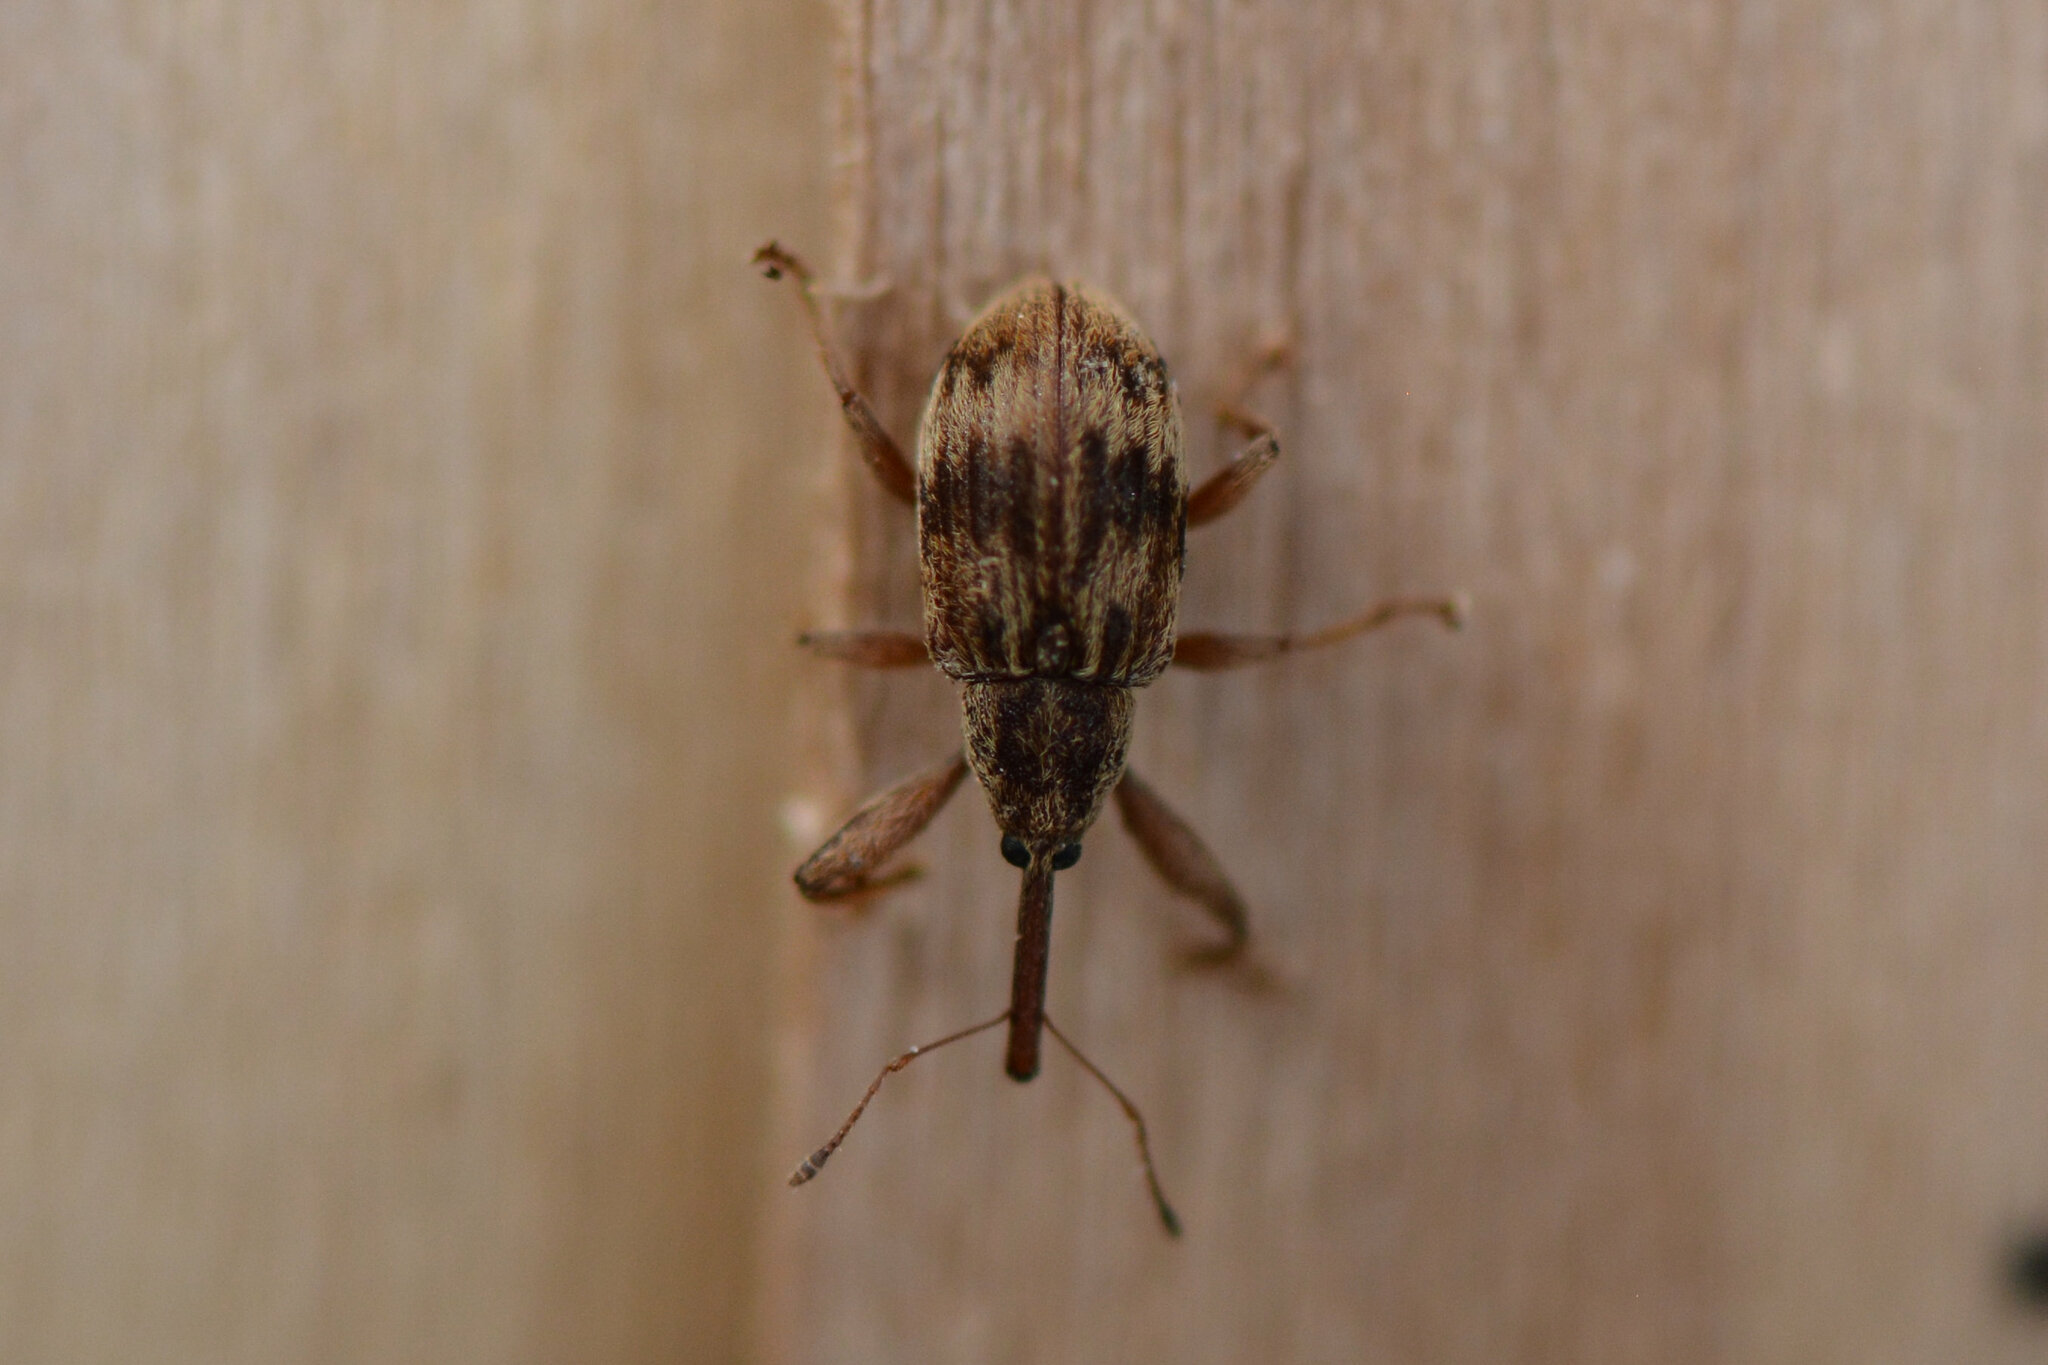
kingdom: Animalia
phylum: Arthropoda
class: Insecta
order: Coleoptera
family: Curculionidae
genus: Anthonomus
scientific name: Anthonomus rectirostris
